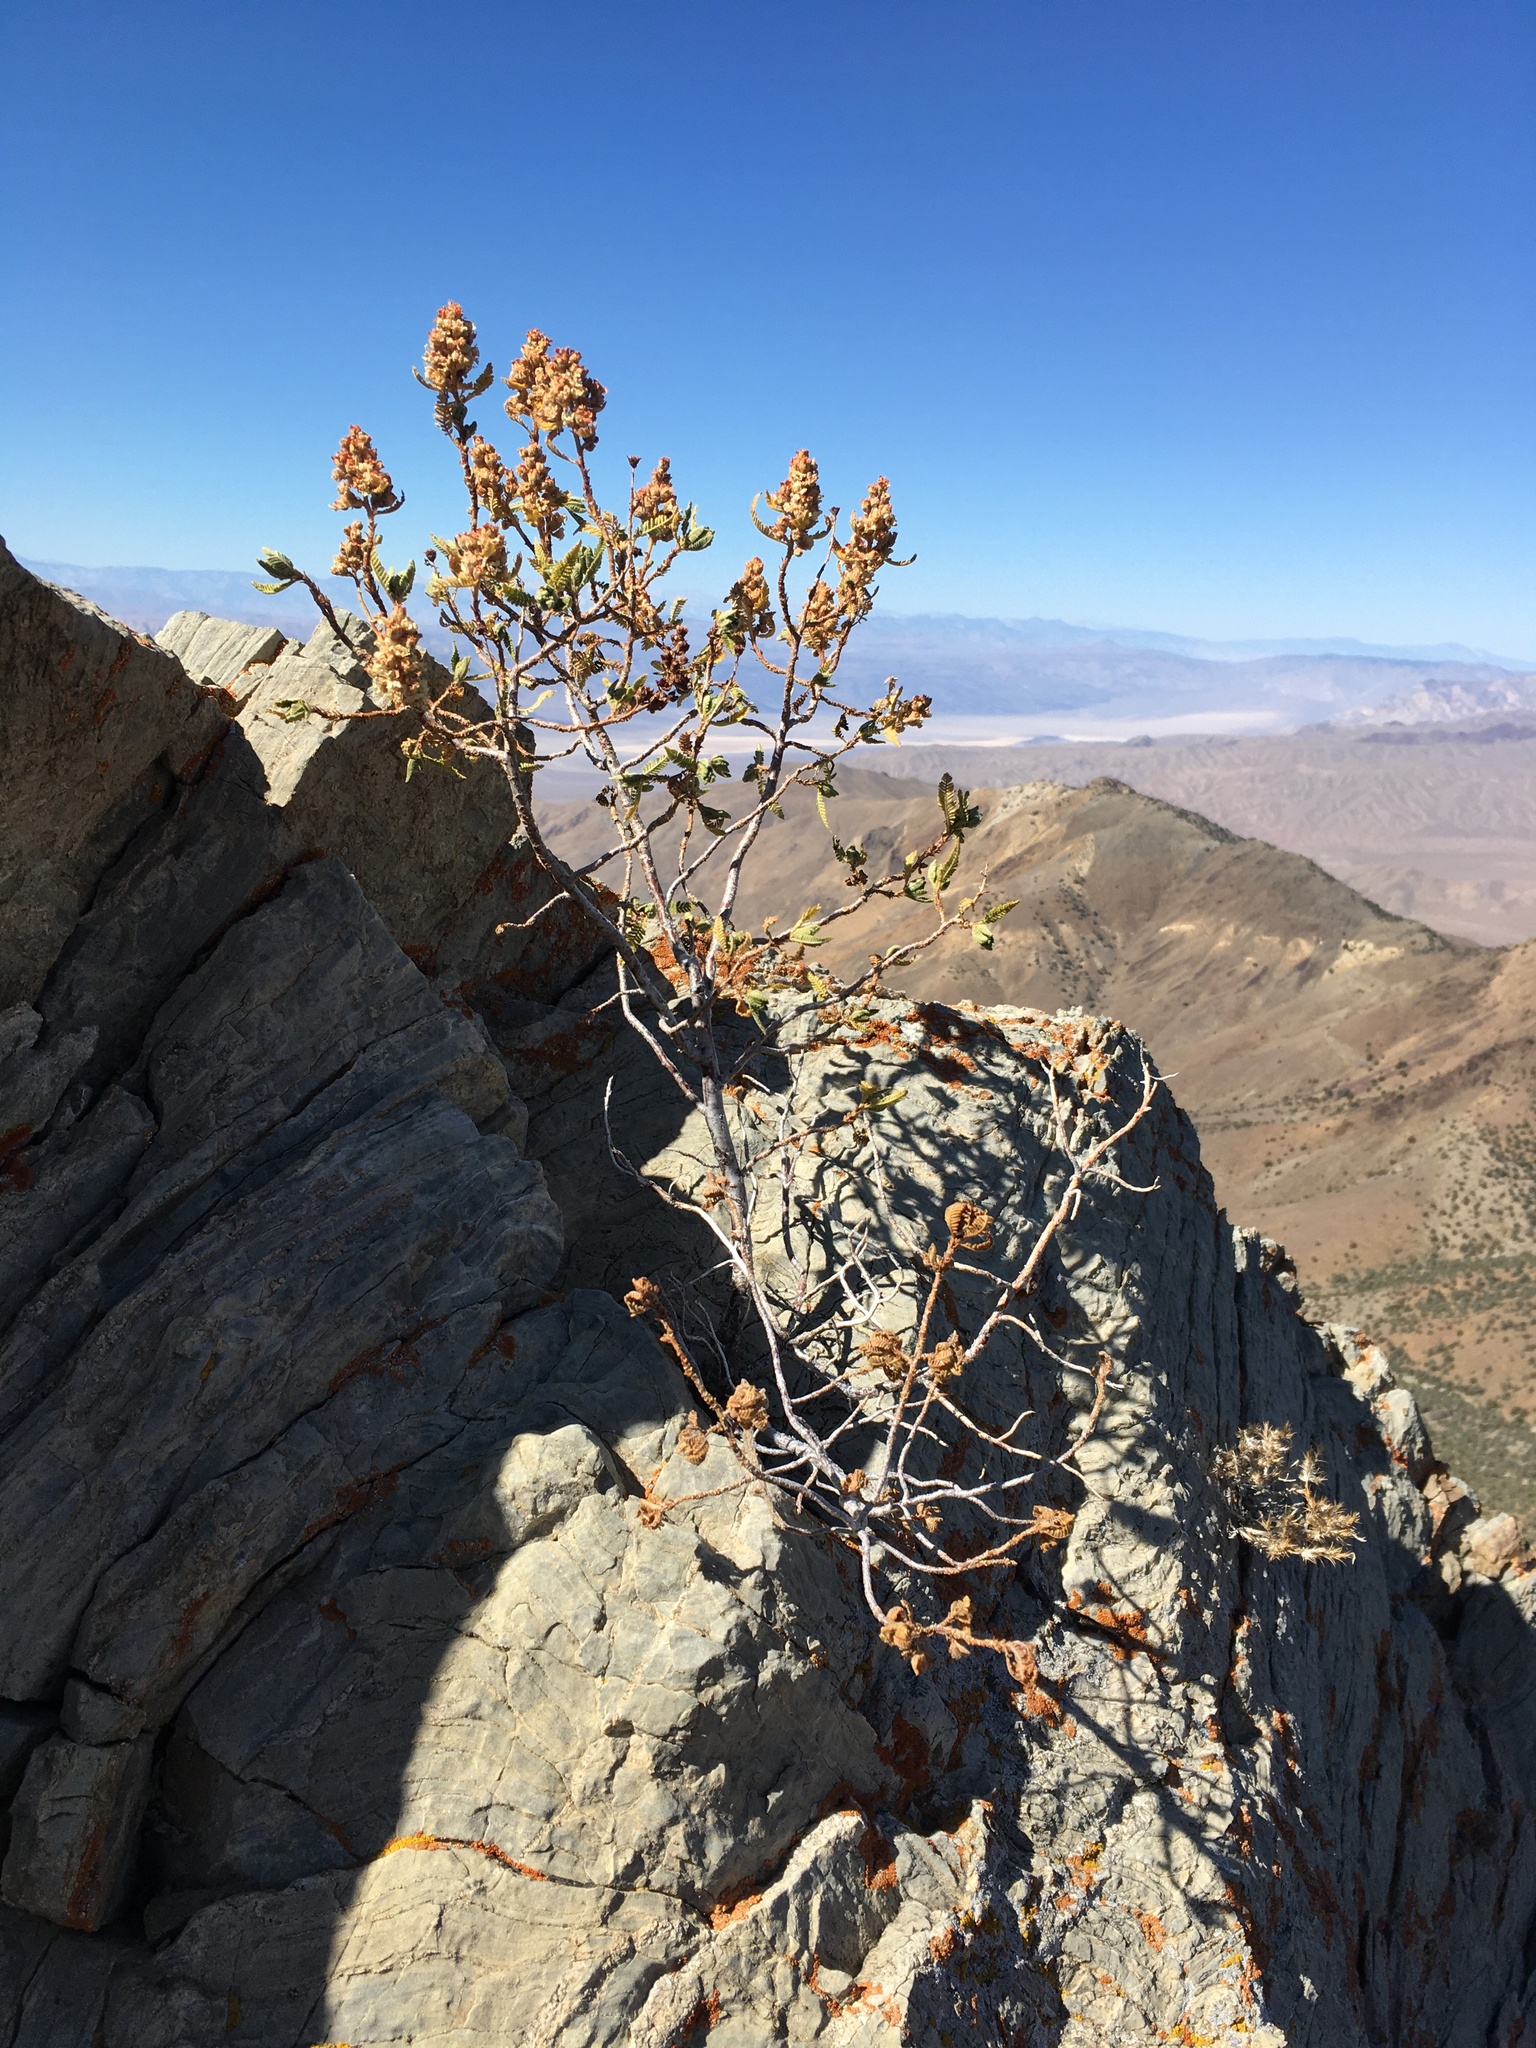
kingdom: Plantae
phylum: Tracheophyta
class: Magnoliopsida
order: Rosales
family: Rosaceae
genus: Chamaebatiaria
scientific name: Chamaebatiaria millefolium
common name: Fernbush
